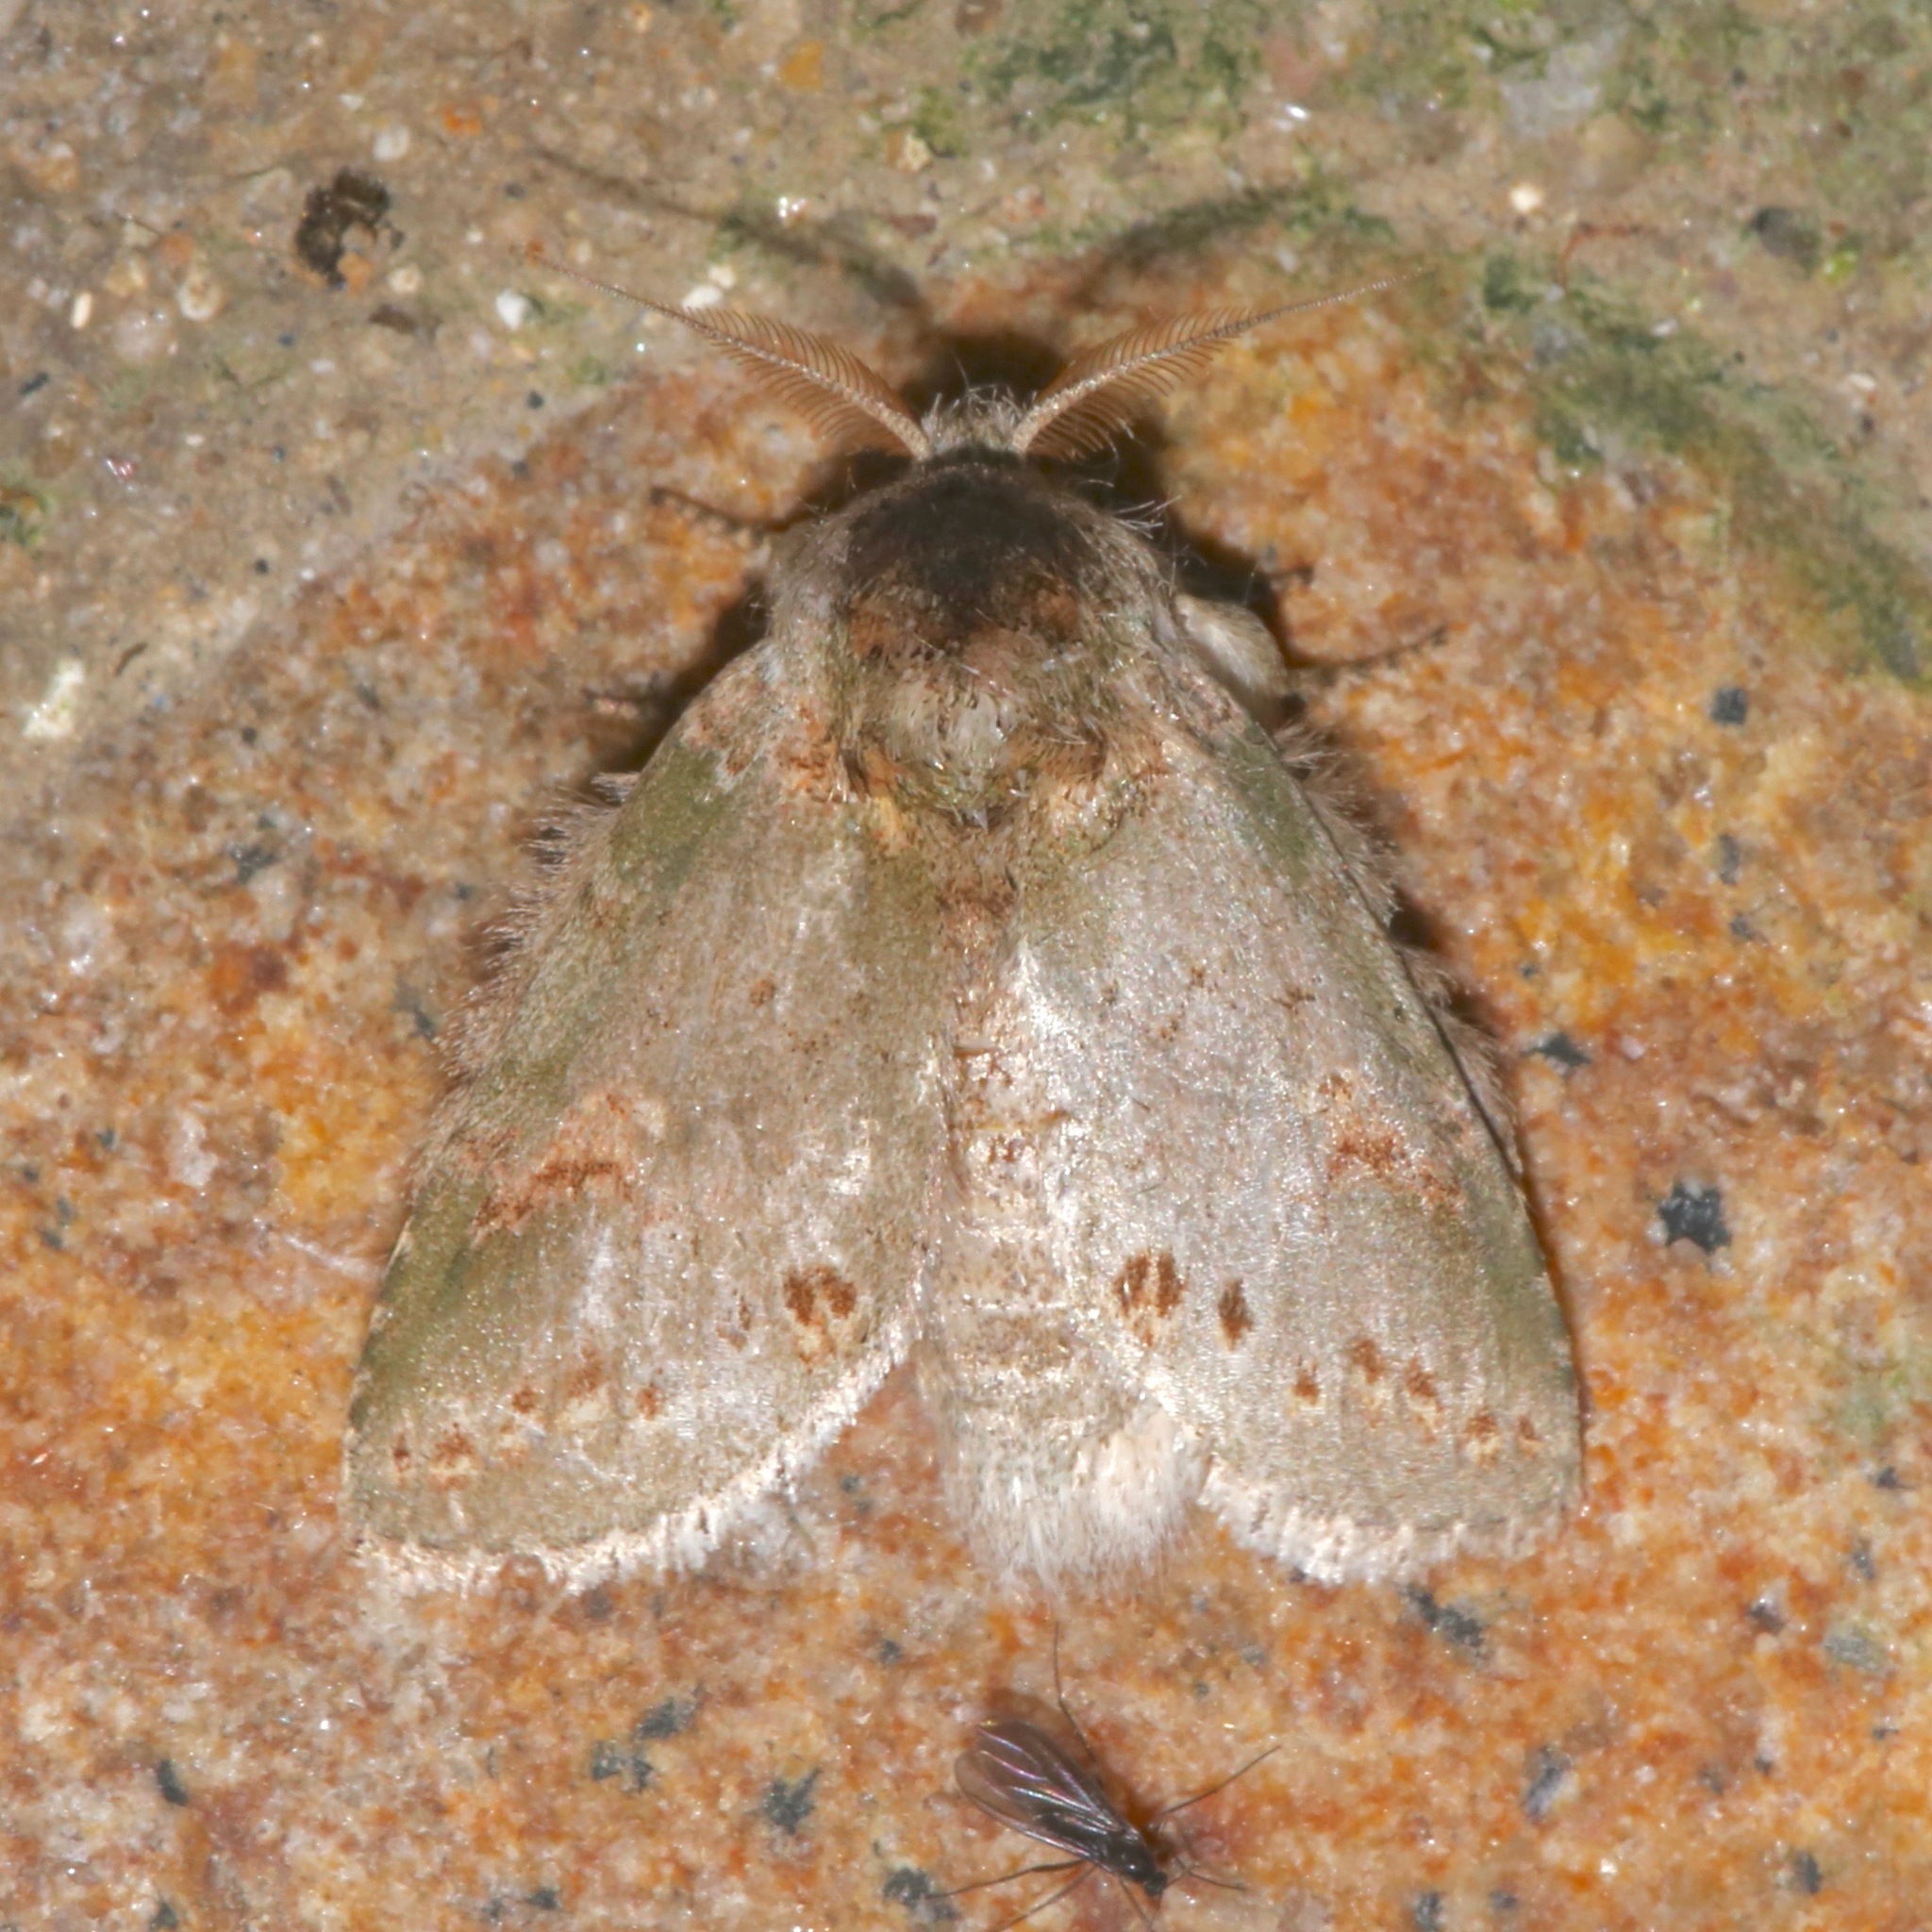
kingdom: Animalia
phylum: Arthropoda
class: Insecta
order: Lepidoptera
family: Notodontidae
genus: Theroa
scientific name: Theroa zethus
